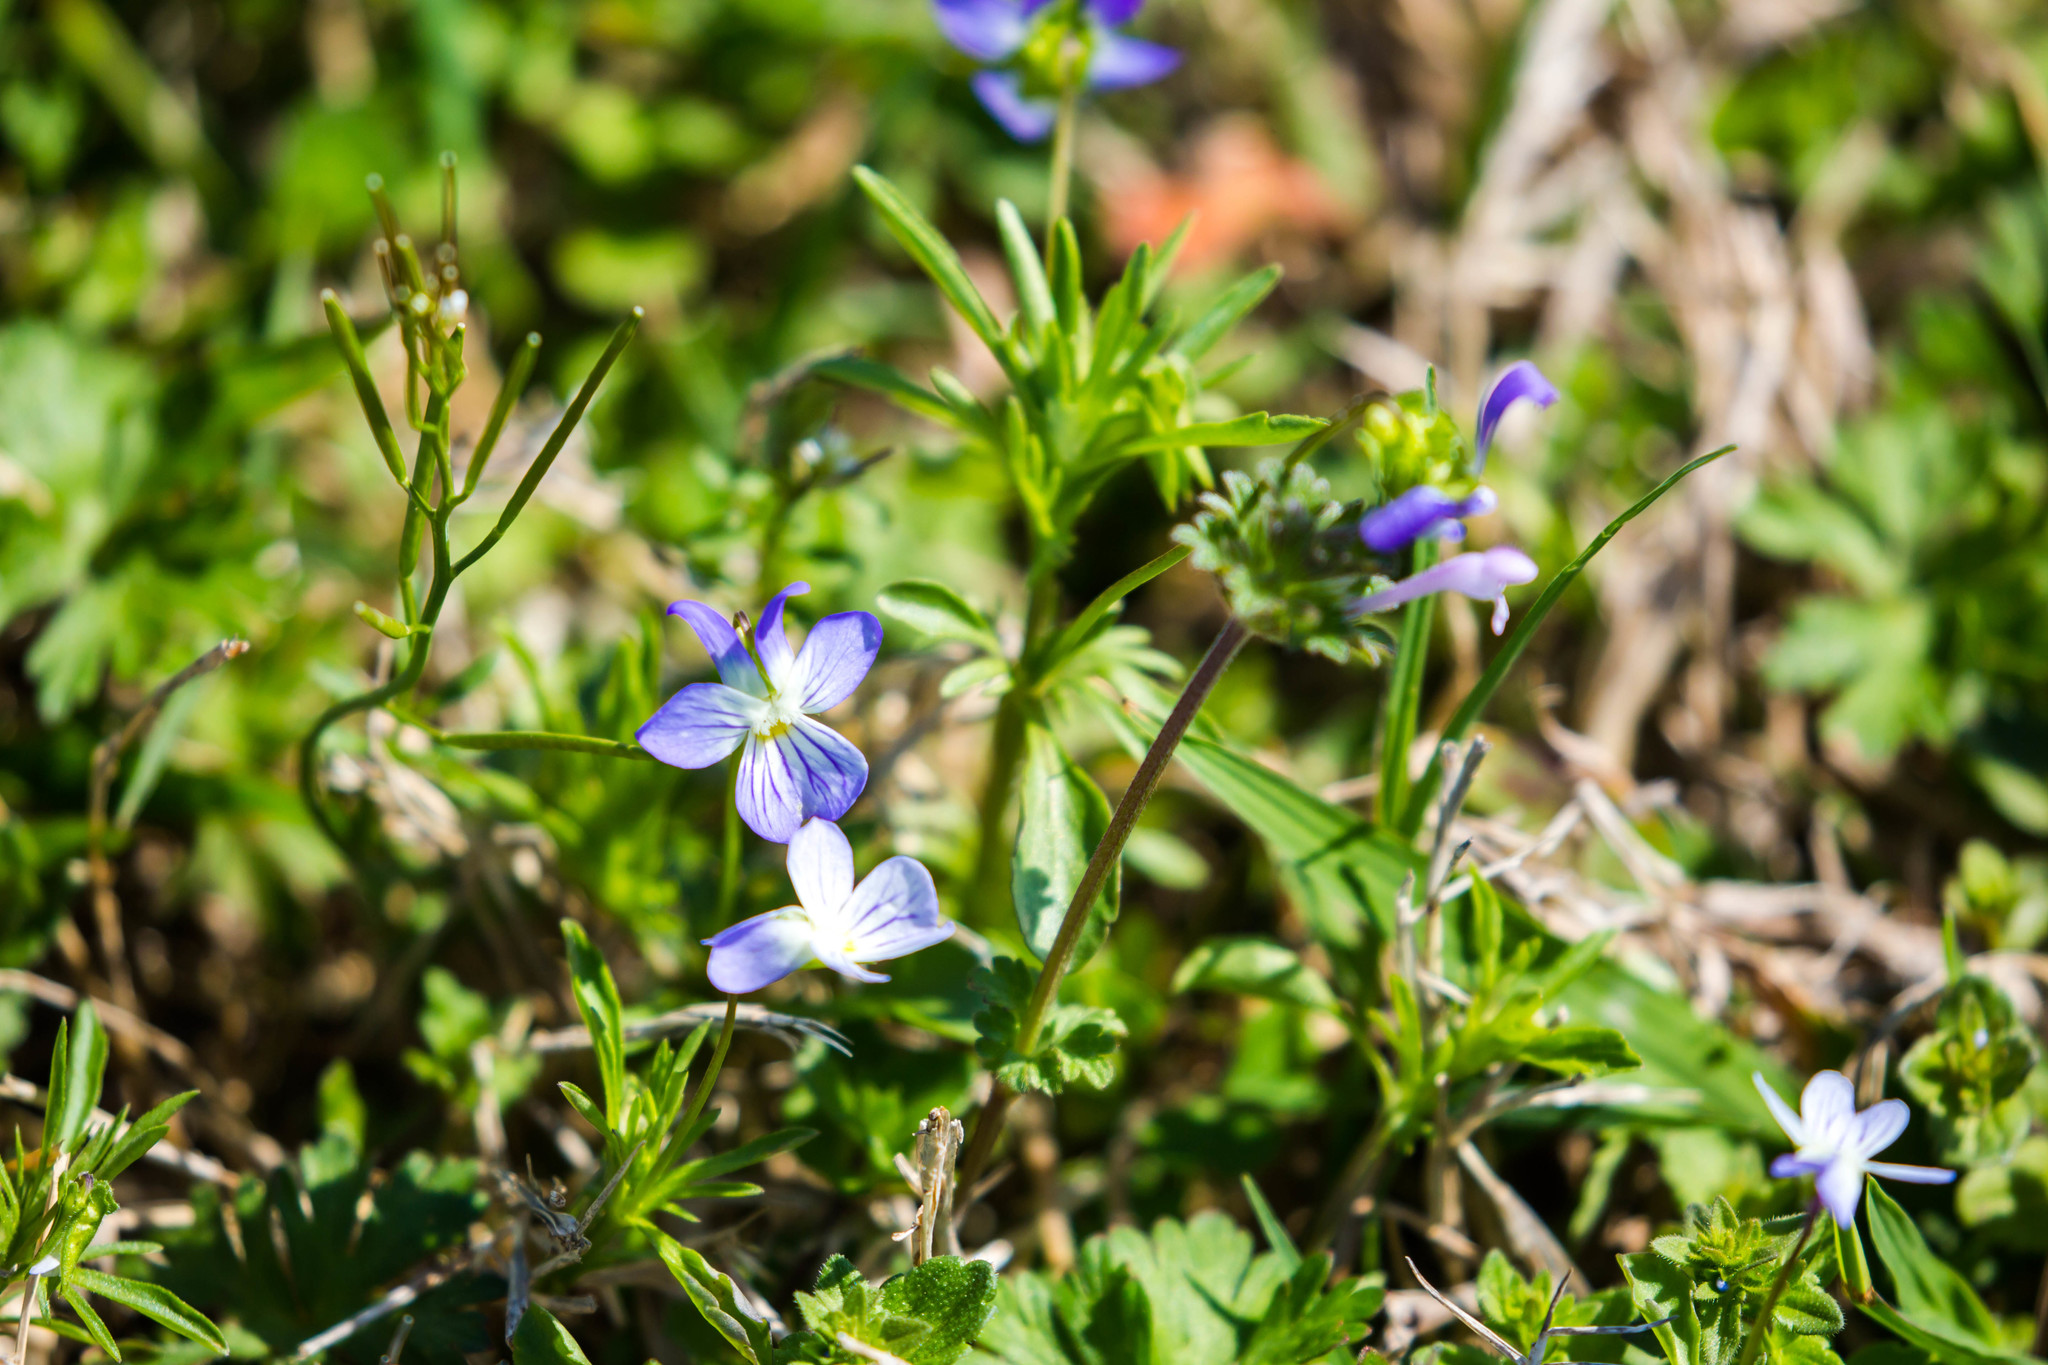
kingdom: Plantae
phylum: Tracheophyta
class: Magnoliopsida
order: Malpighiales
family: Violaceae
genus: Viola
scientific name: Viola rafinesquei
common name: American field pansy
